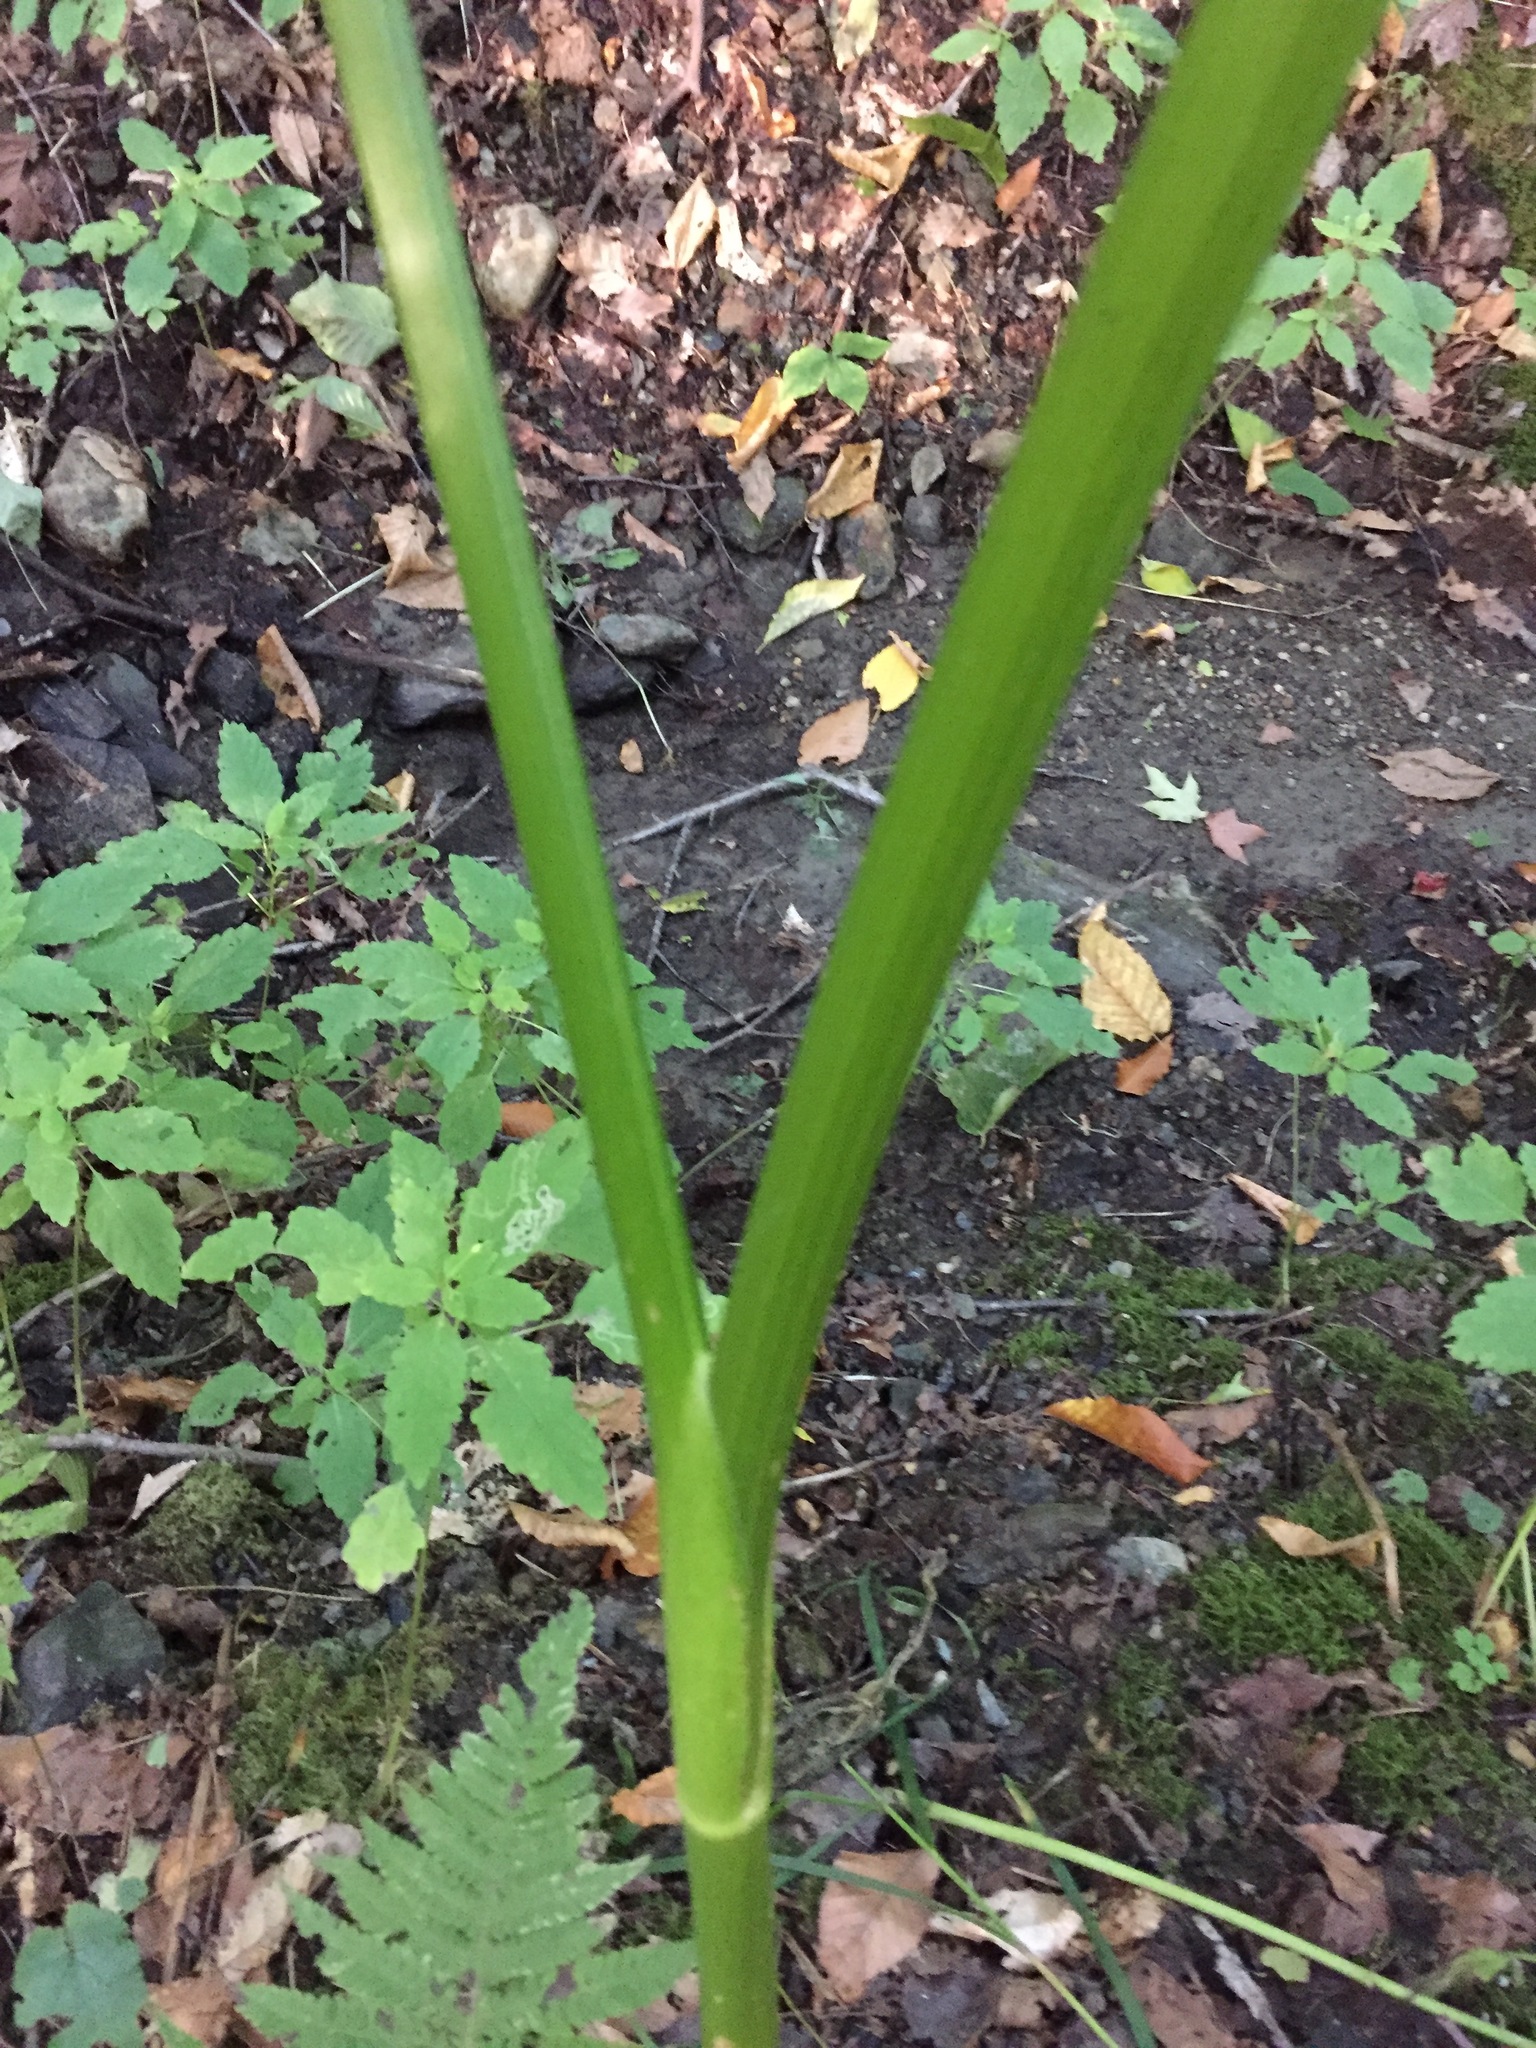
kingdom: Plantae
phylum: Tracheophyta
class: Magnoliopsida
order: Apiales
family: Apiaceae
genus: Heracleum
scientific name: Heracleum maximum
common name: American cow parsnip
